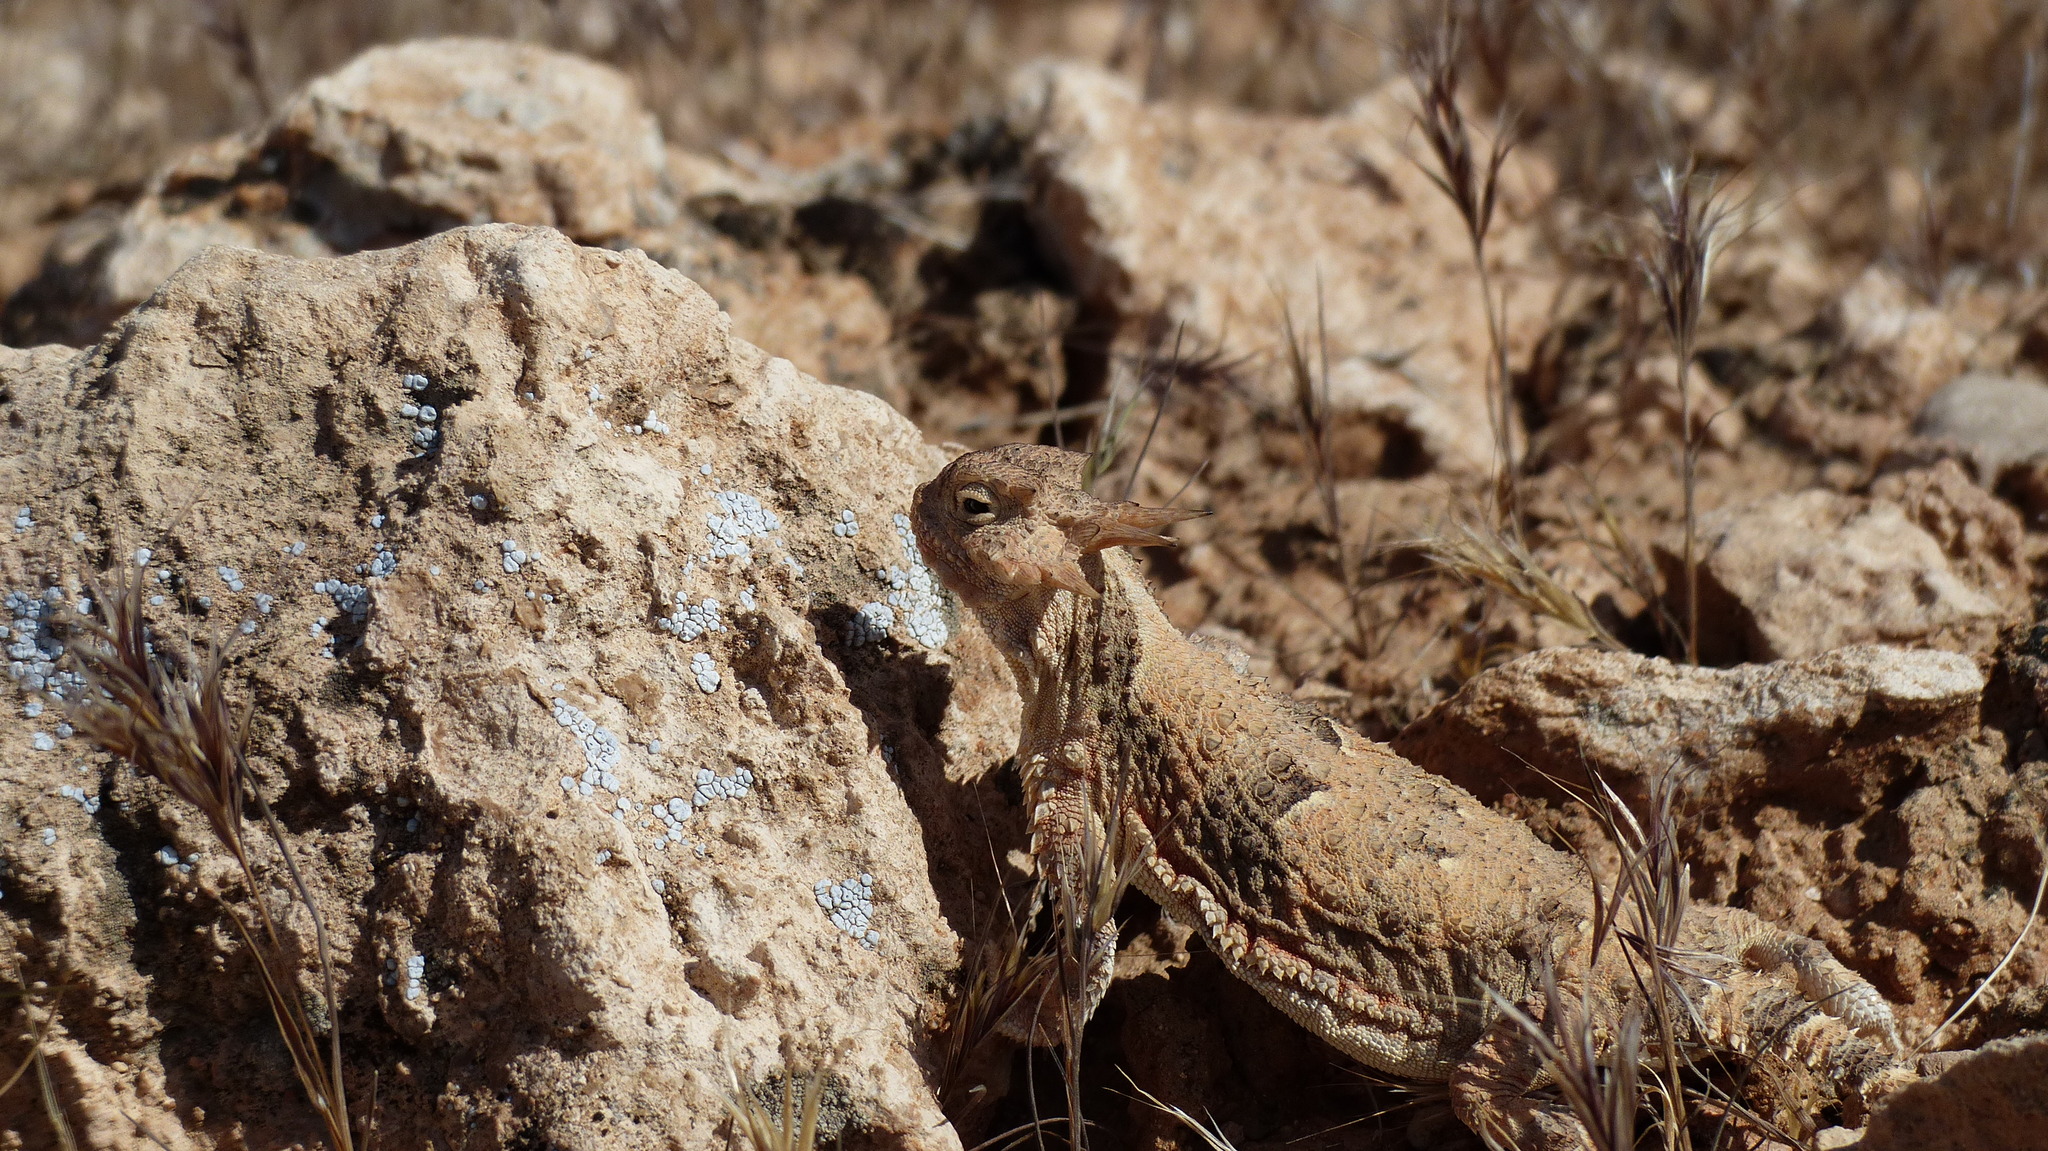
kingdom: Animalia
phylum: Chordata
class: Squamata
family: Phrynosomatidae
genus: Phrynosoma
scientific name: Phrynosoma platyrhinos
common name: Desert horned lizard
